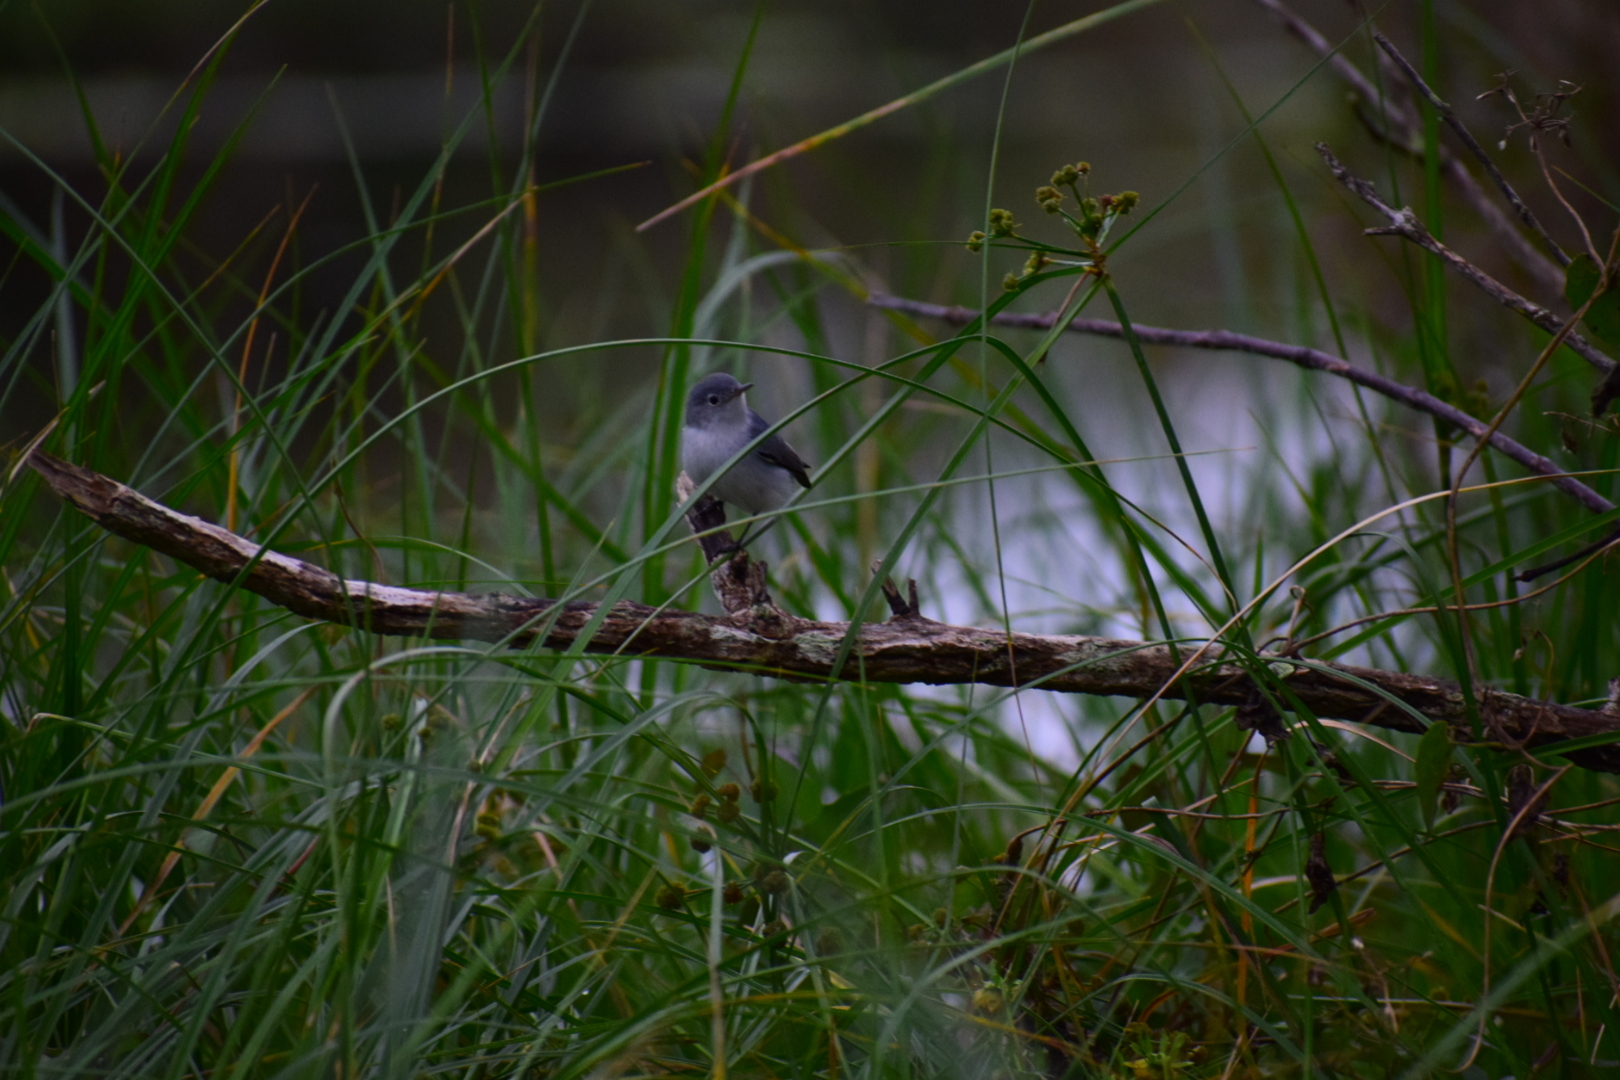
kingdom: Animalia
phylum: Chordata
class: Aves
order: Passeriformes
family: Polioptilidae
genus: Polioptila
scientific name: Polioptila caerulea
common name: Blue-gray gnatcatcher
